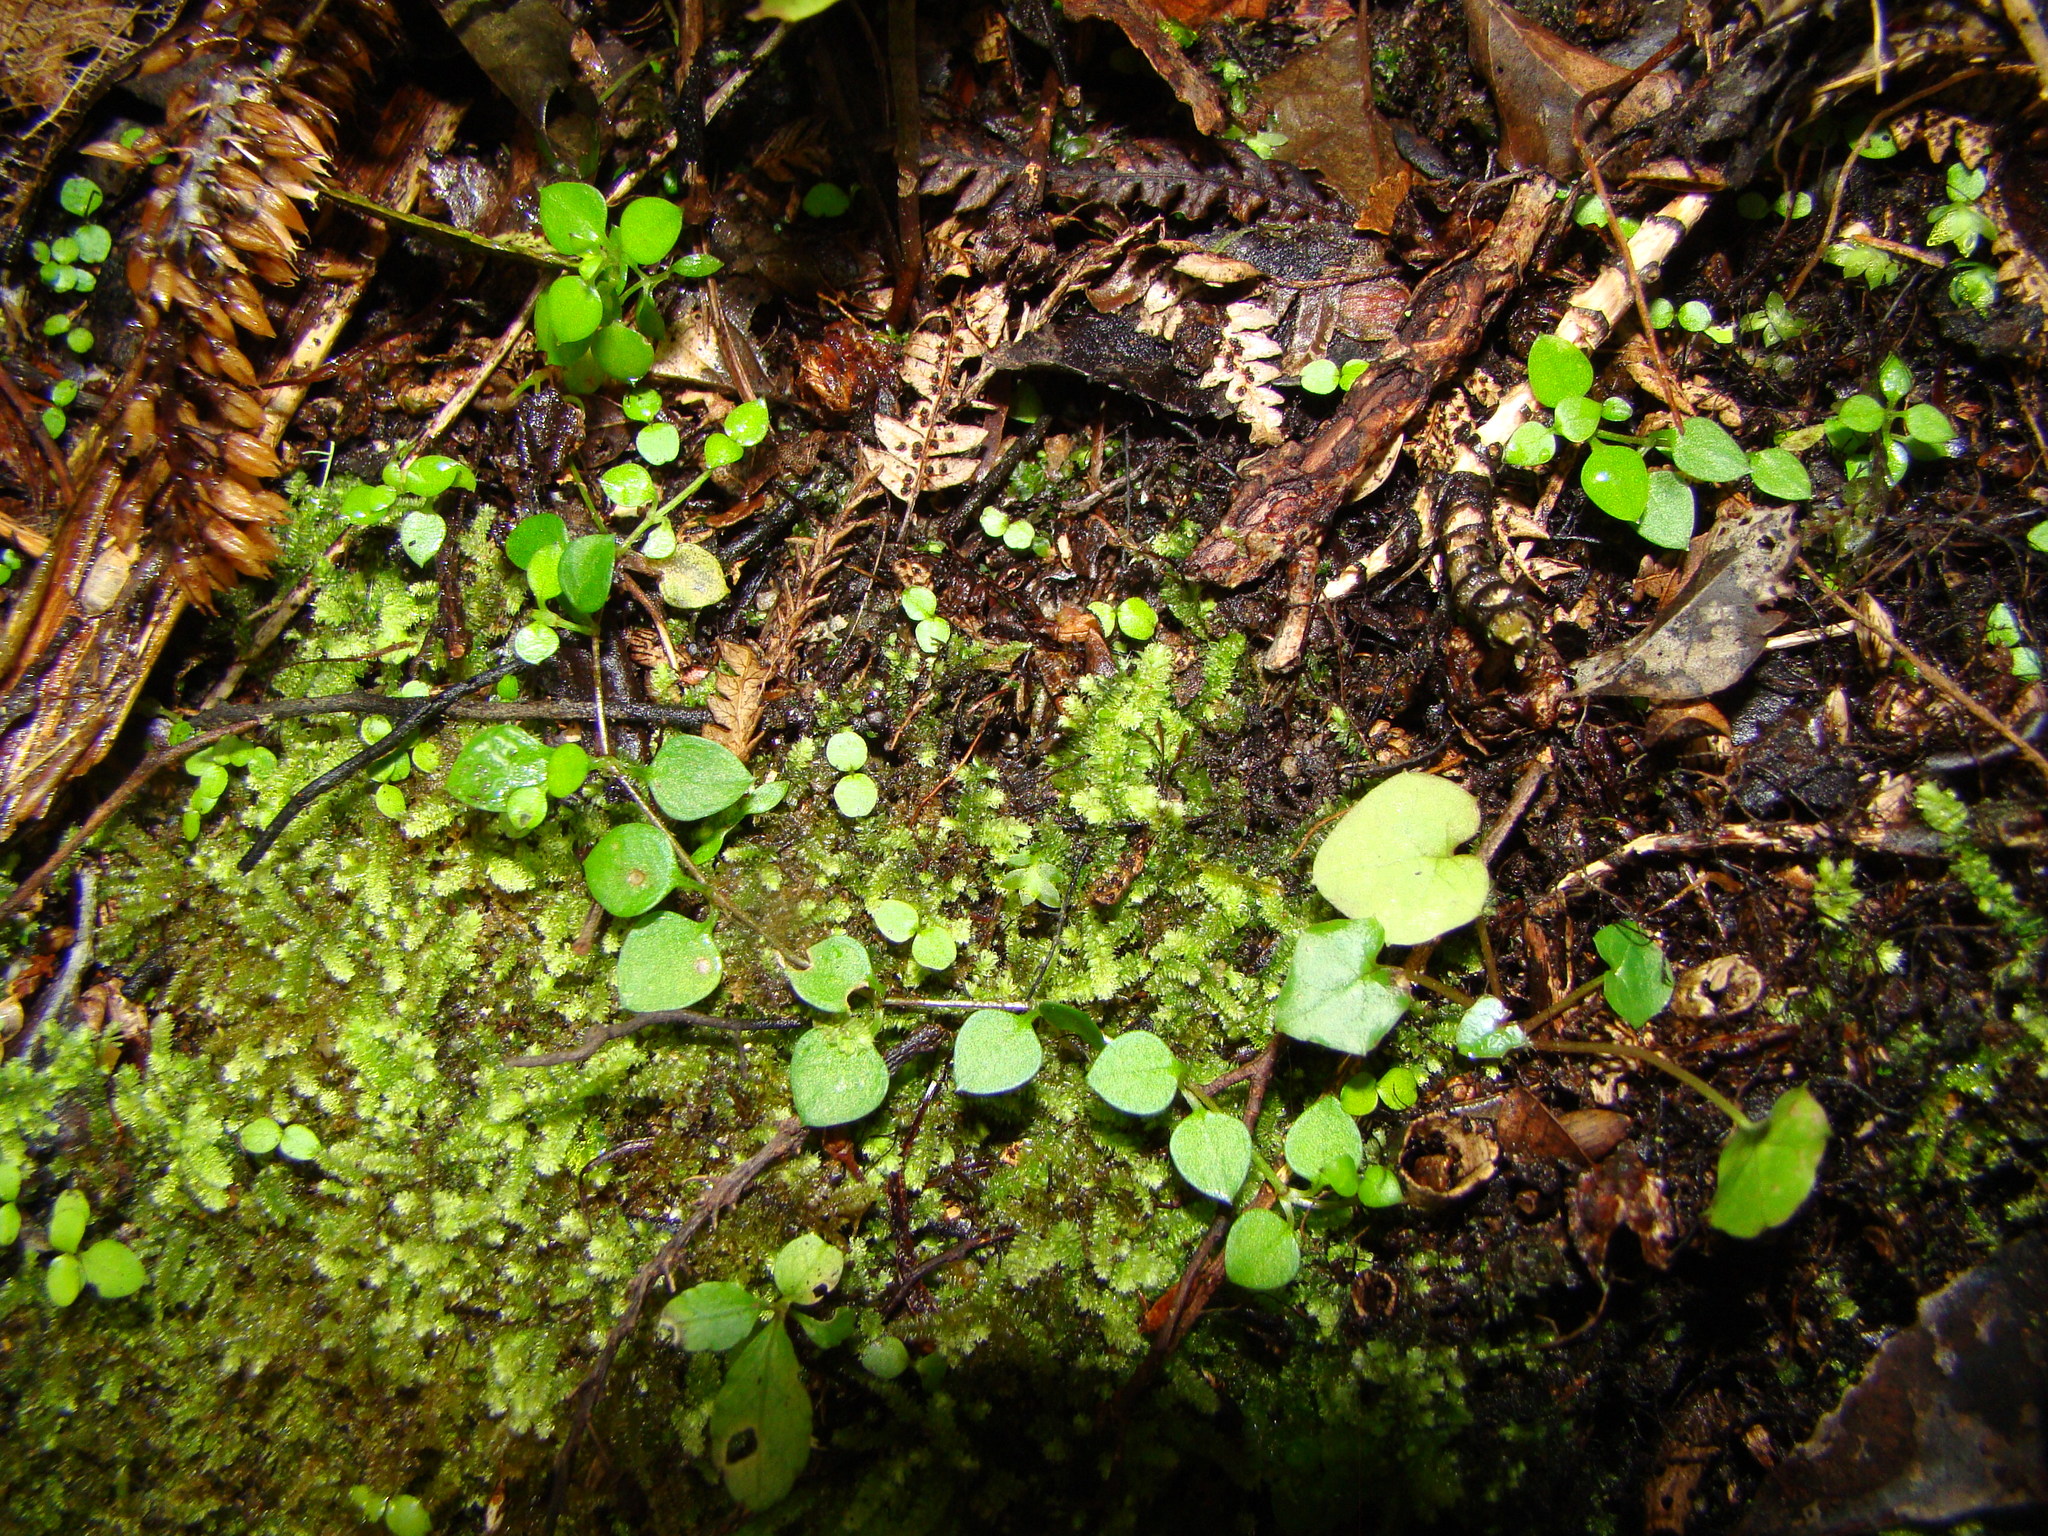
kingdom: Plantae
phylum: Tracheophyta
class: Magnoliopsida
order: Caryophyllales
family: Caryophyllaceae
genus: Stellaria
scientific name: Stellaria parviflora
